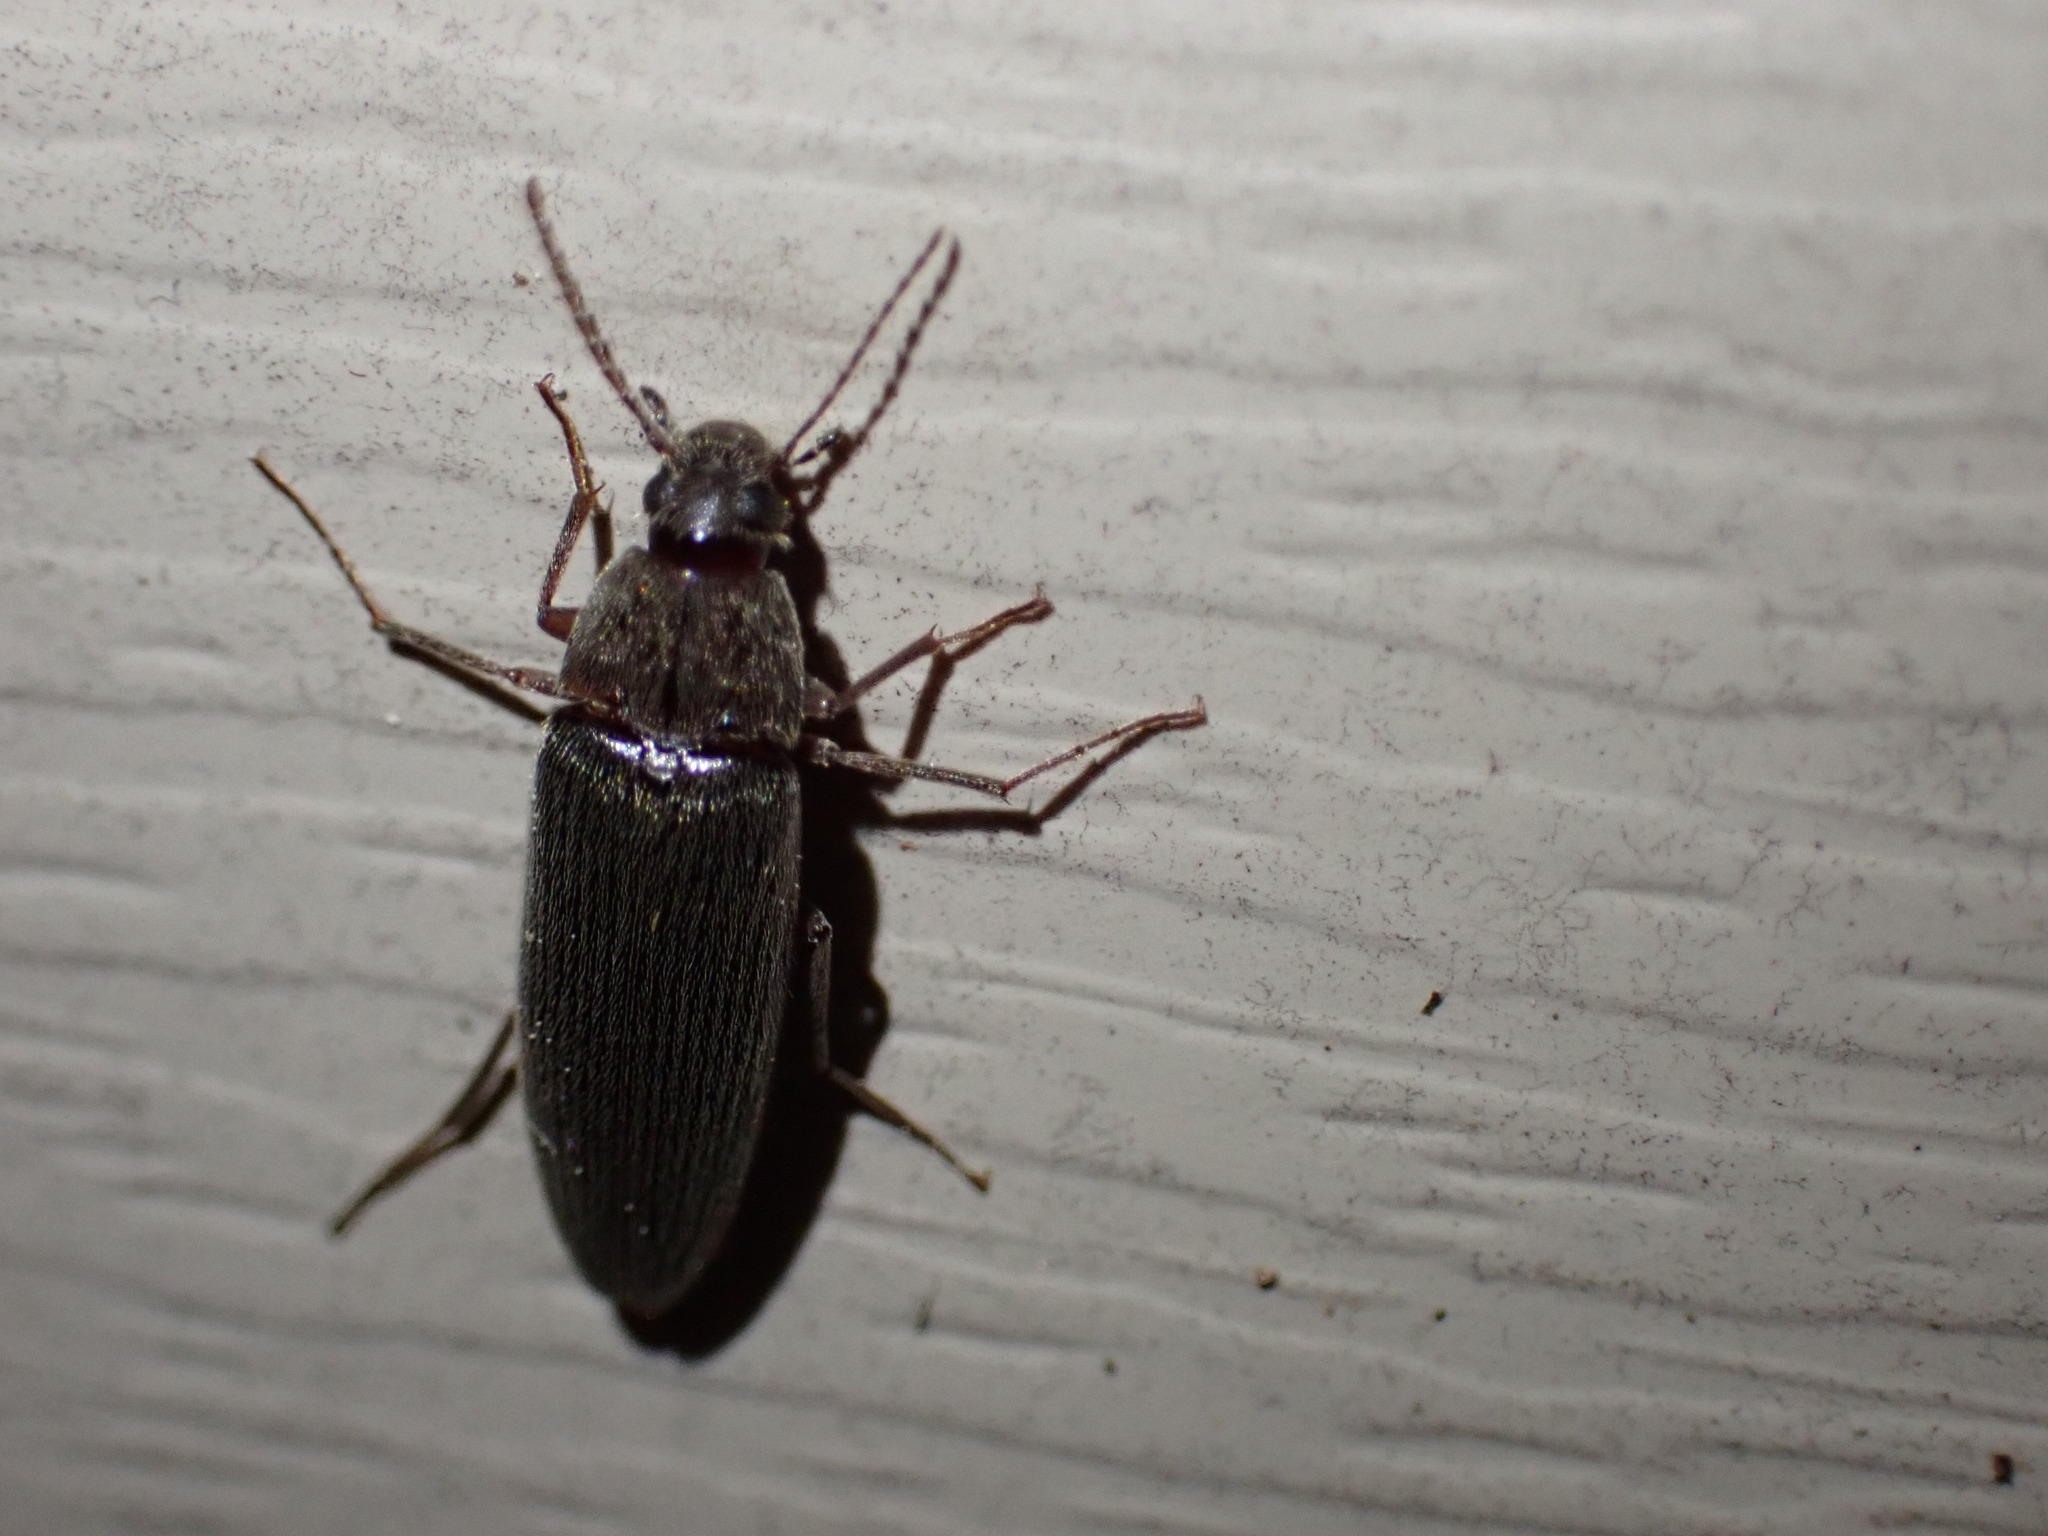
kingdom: Animalia
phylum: Arthropoda
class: Insecta
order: Coleoptera
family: Synchroidae
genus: Synchroa
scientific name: Synchroa punctata
